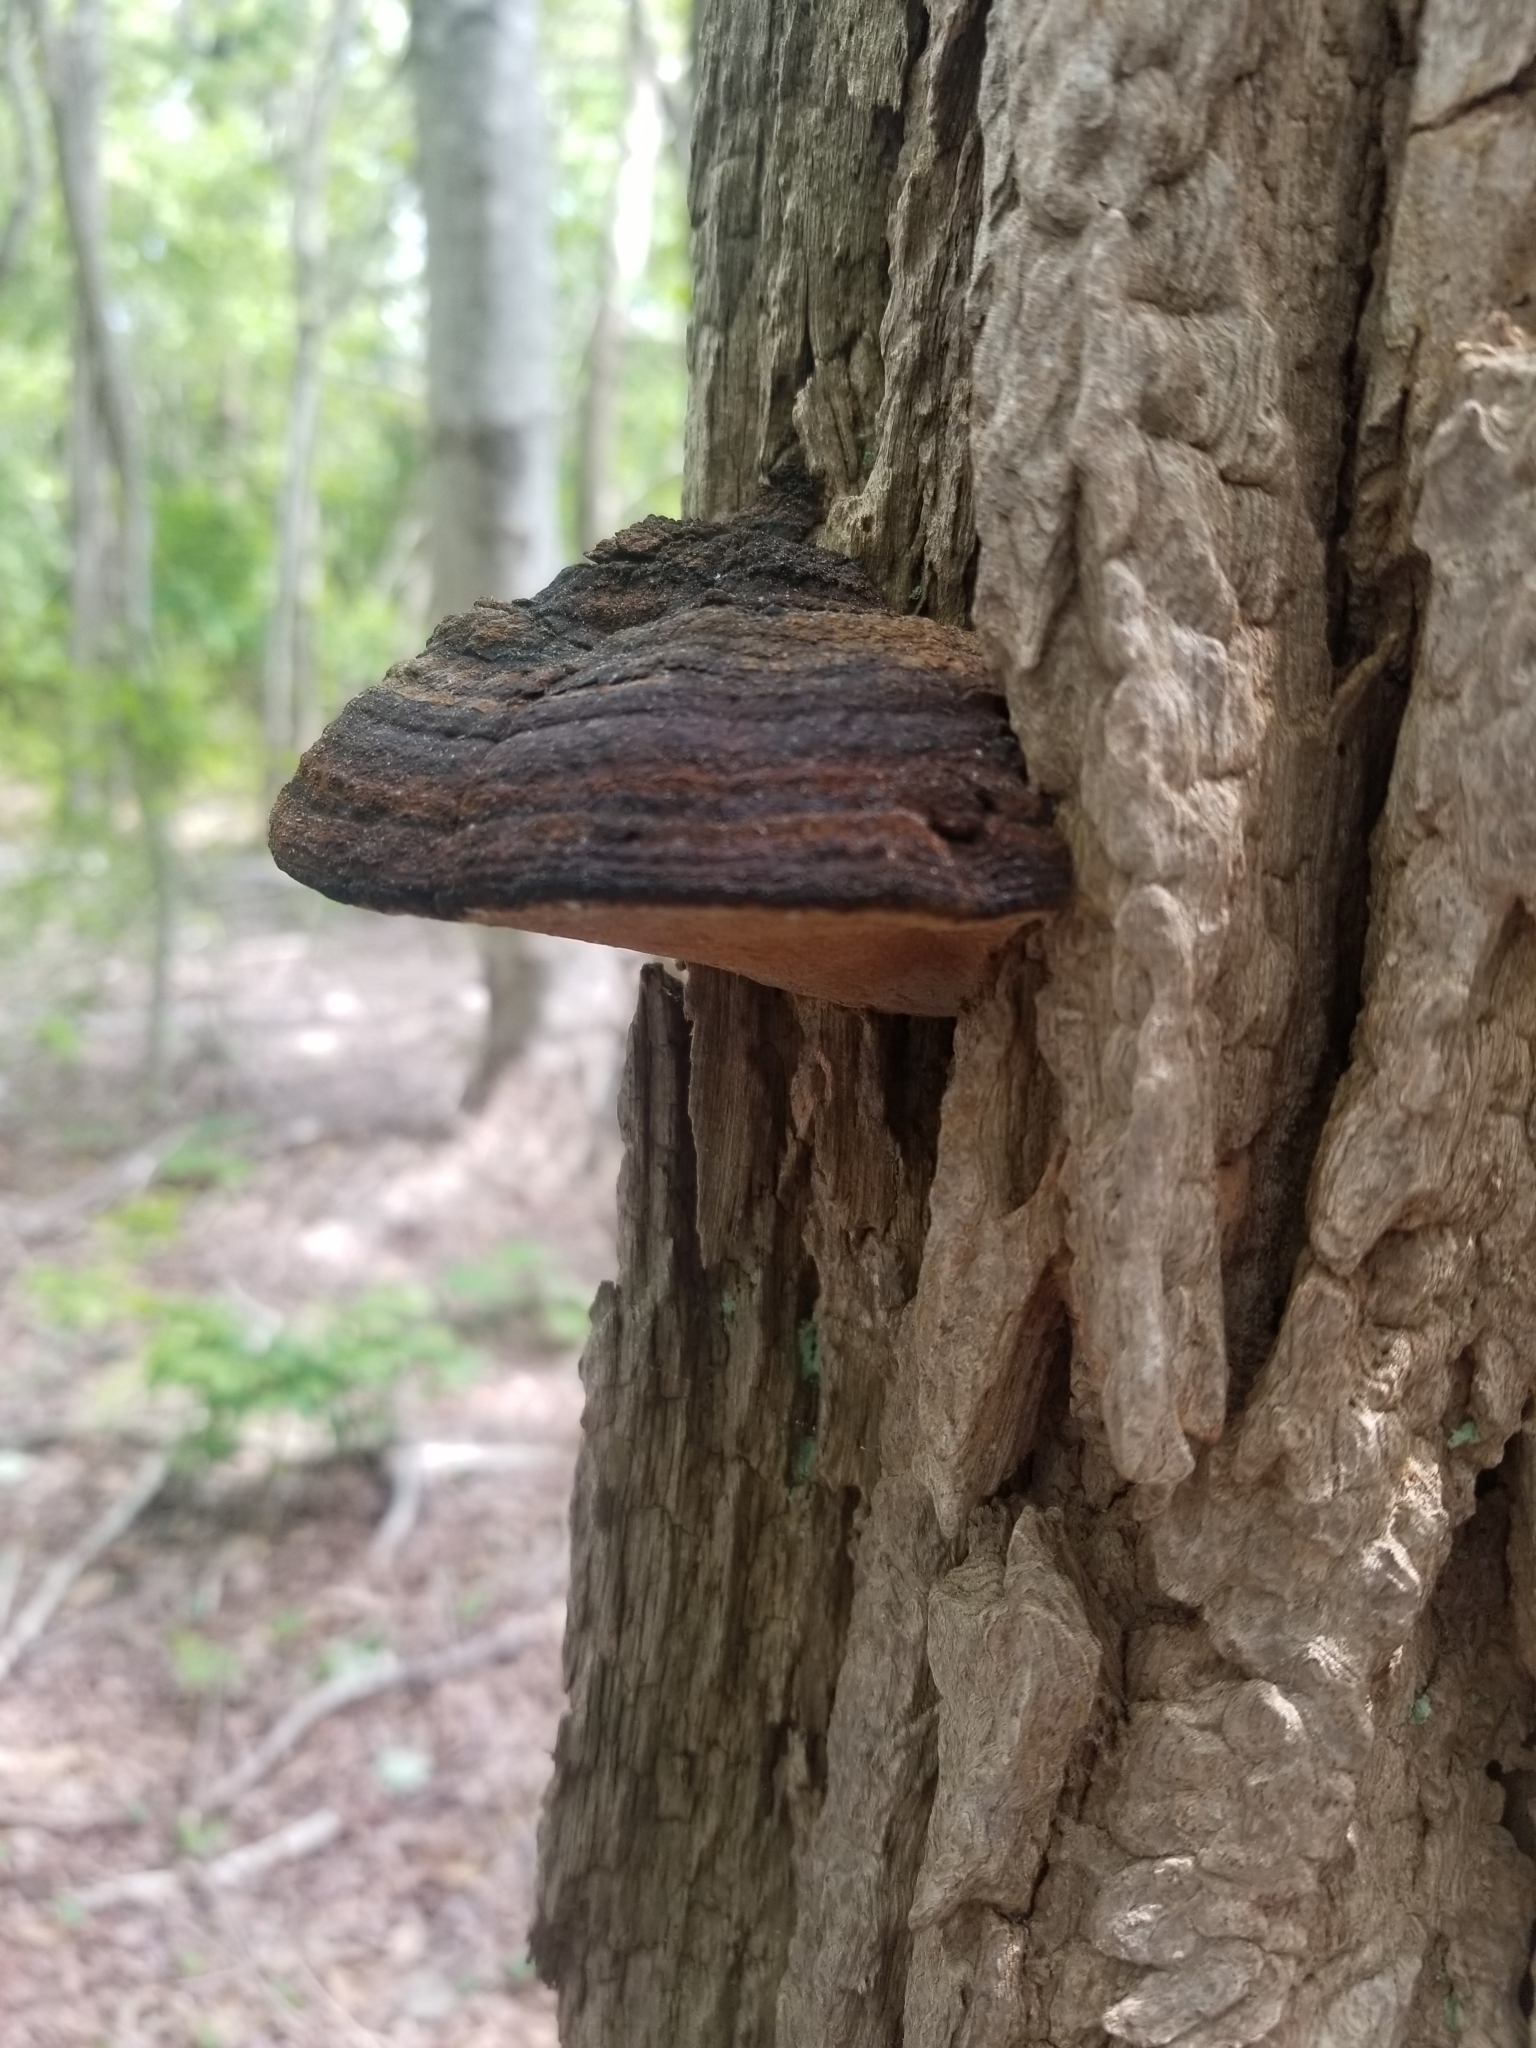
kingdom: Fungi
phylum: Basidiomycota
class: Agaricomycetes
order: Hymenochaetales
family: Hymenochaetaceae
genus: Phellinus
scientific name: Phellinus robiniae
